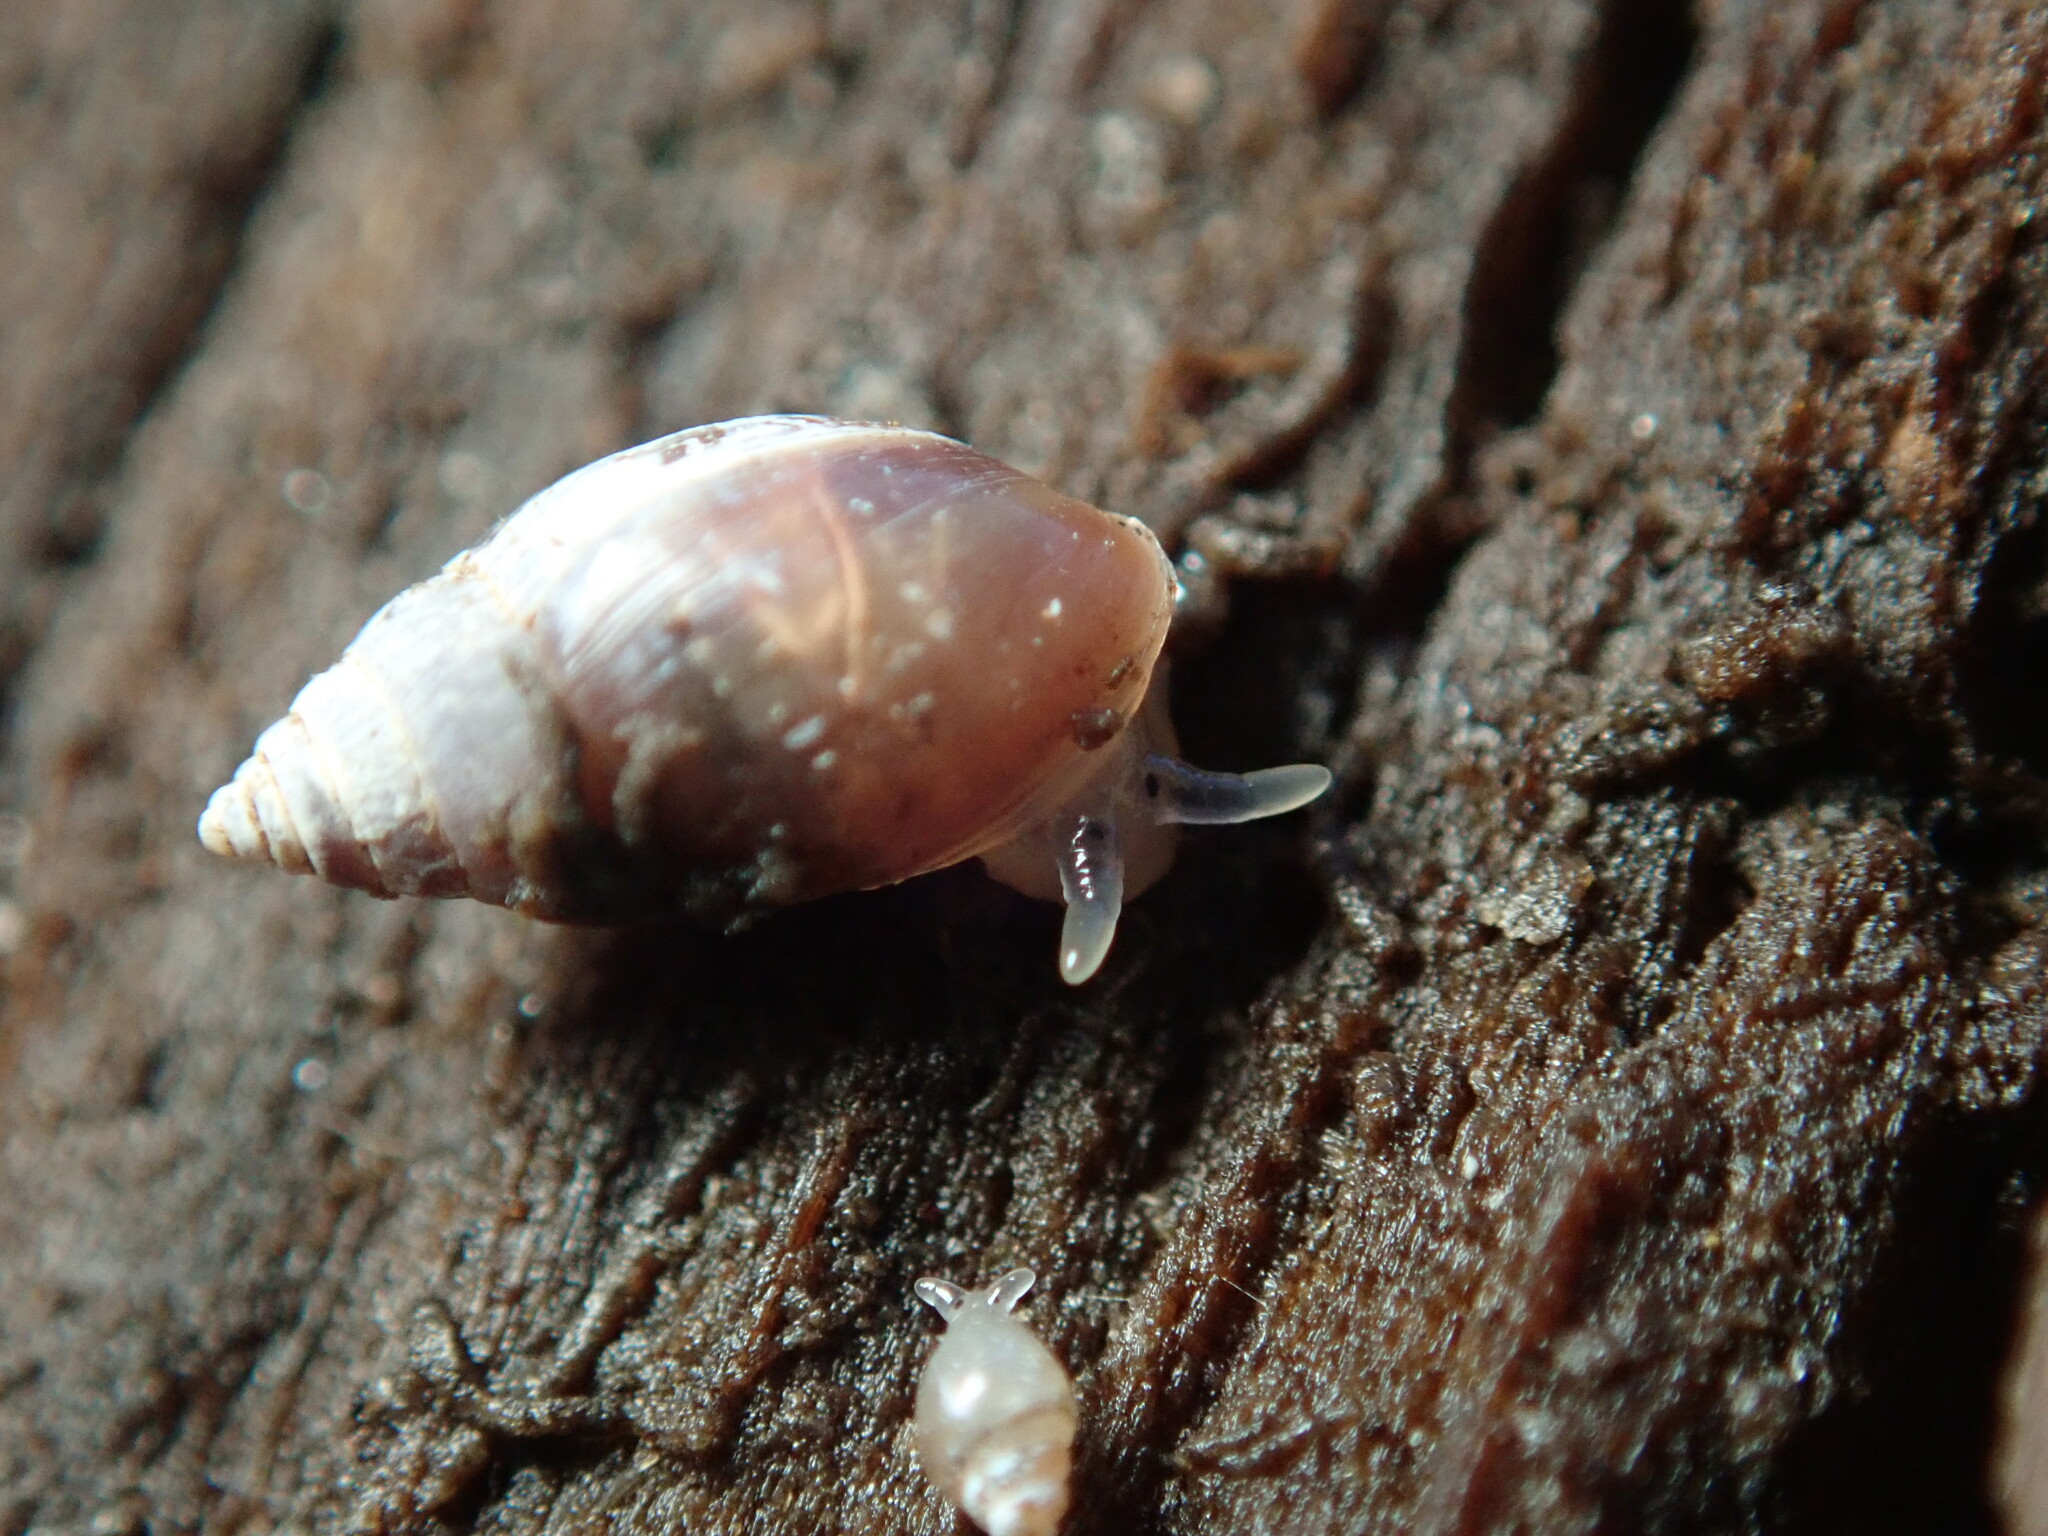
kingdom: Animalia
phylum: Mollusca
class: Gastropoda
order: Ellobiida
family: Ellobiidae
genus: Myosotella
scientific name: Myosotella myosotis
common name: Mouse-eared snail
